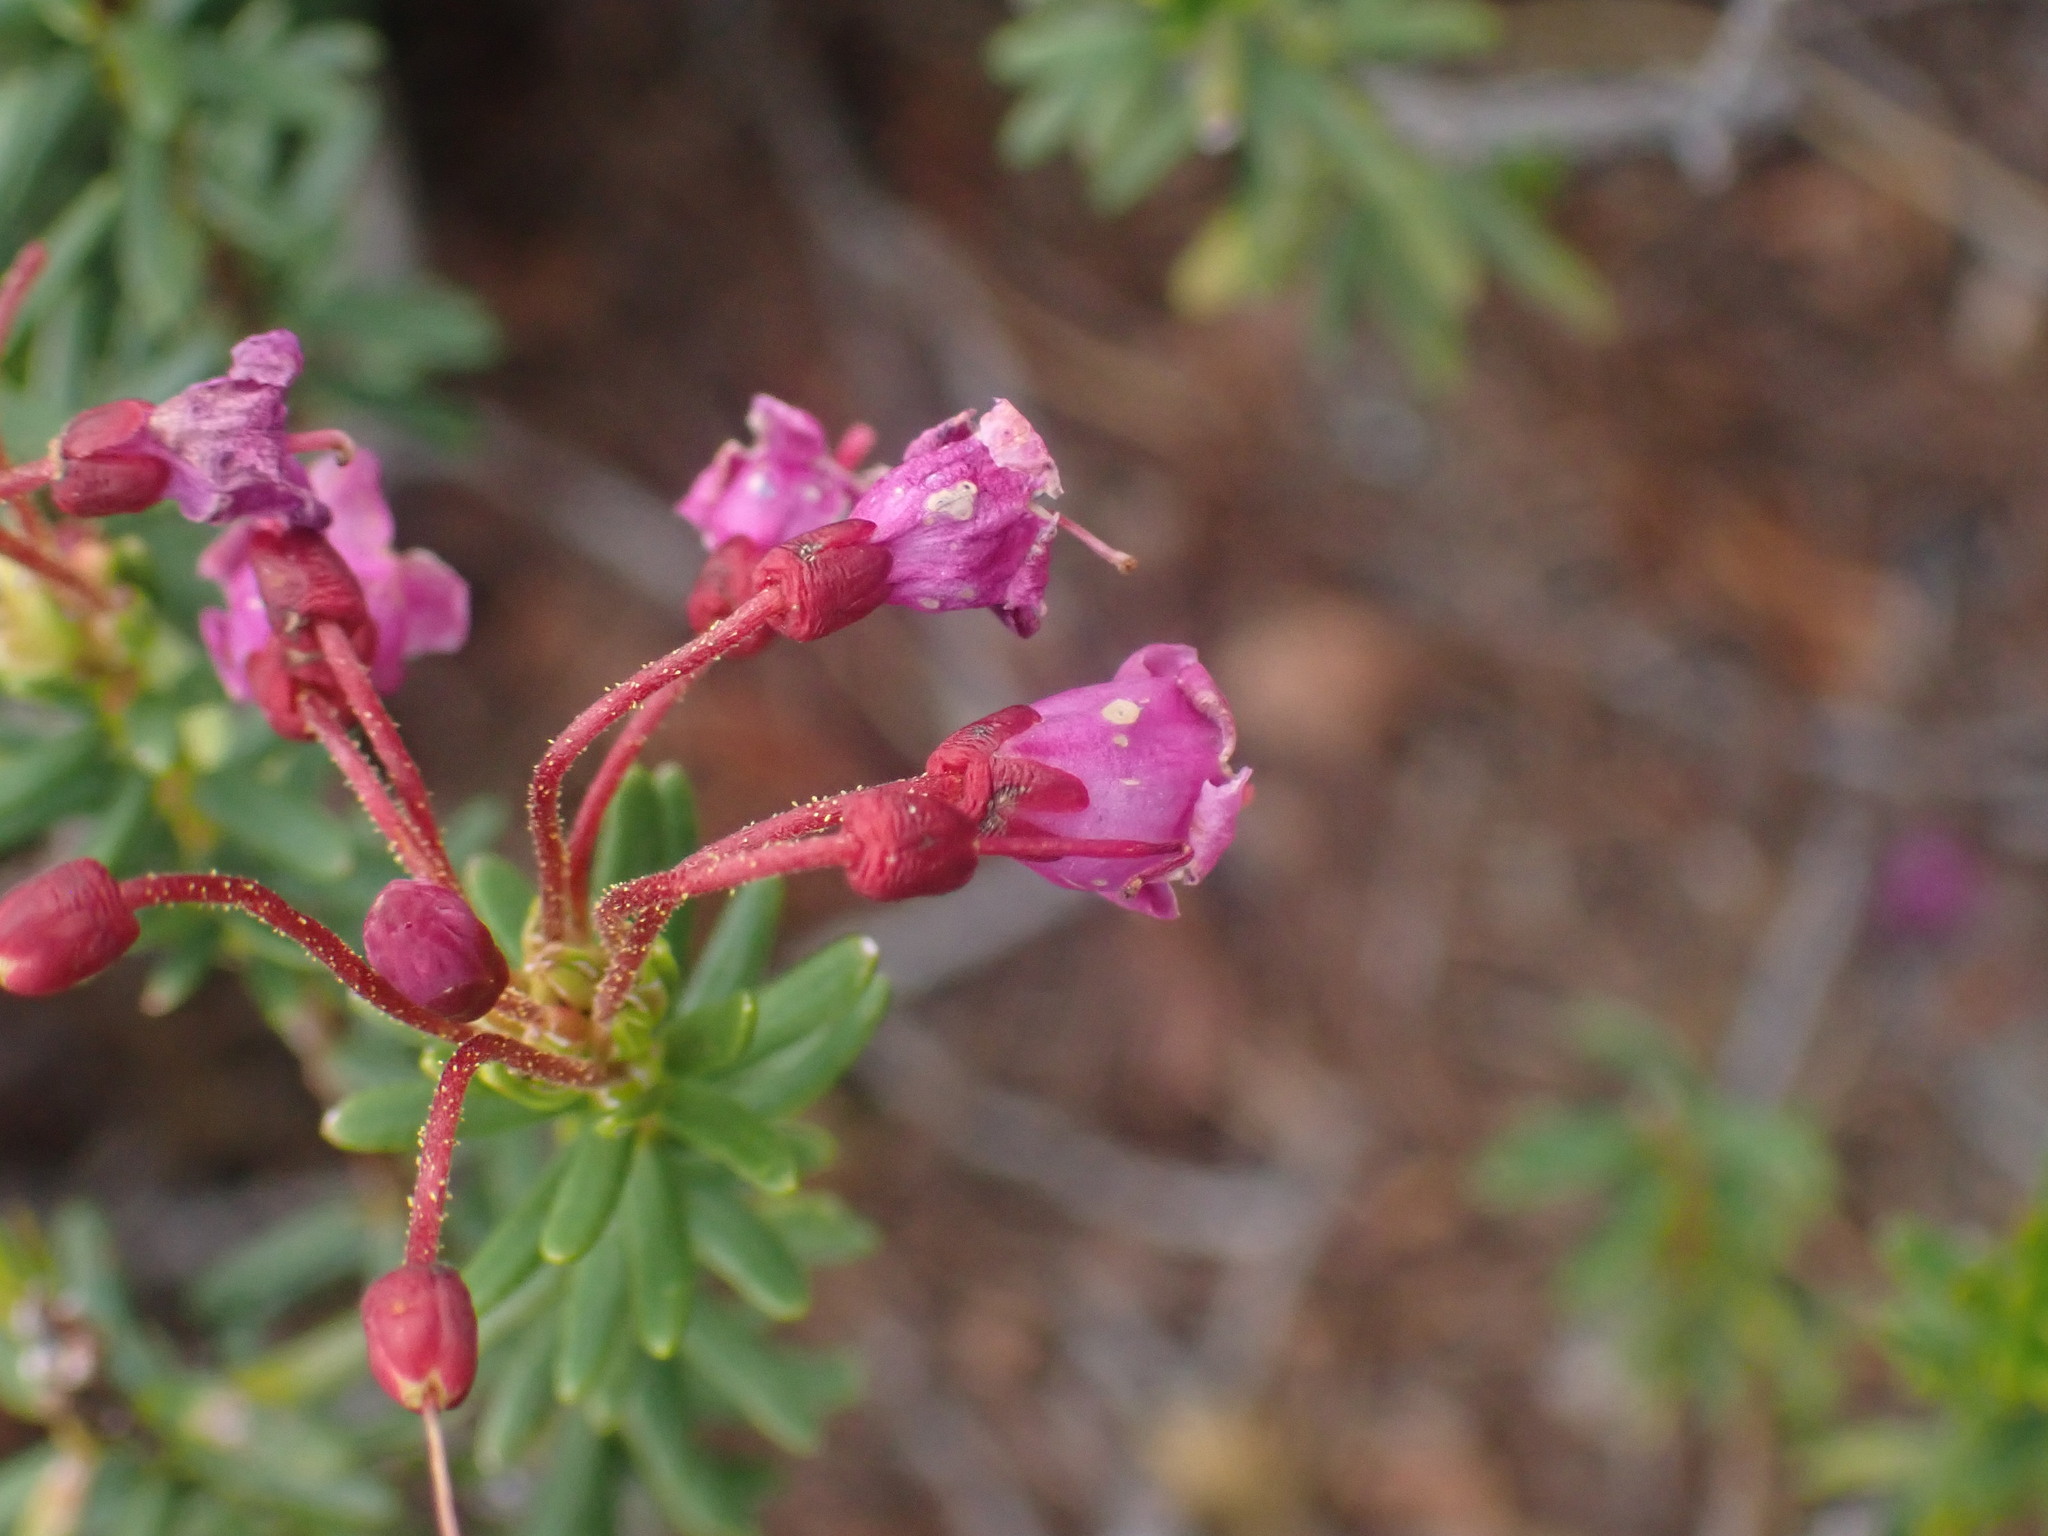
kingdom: Plantae
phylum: Tracheophyta
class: Magnoliopsida
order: Ericales
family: Ericaceae
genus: Phyllodoce
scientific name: Phyllodoce empetriformis
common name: Pink mountain heather
